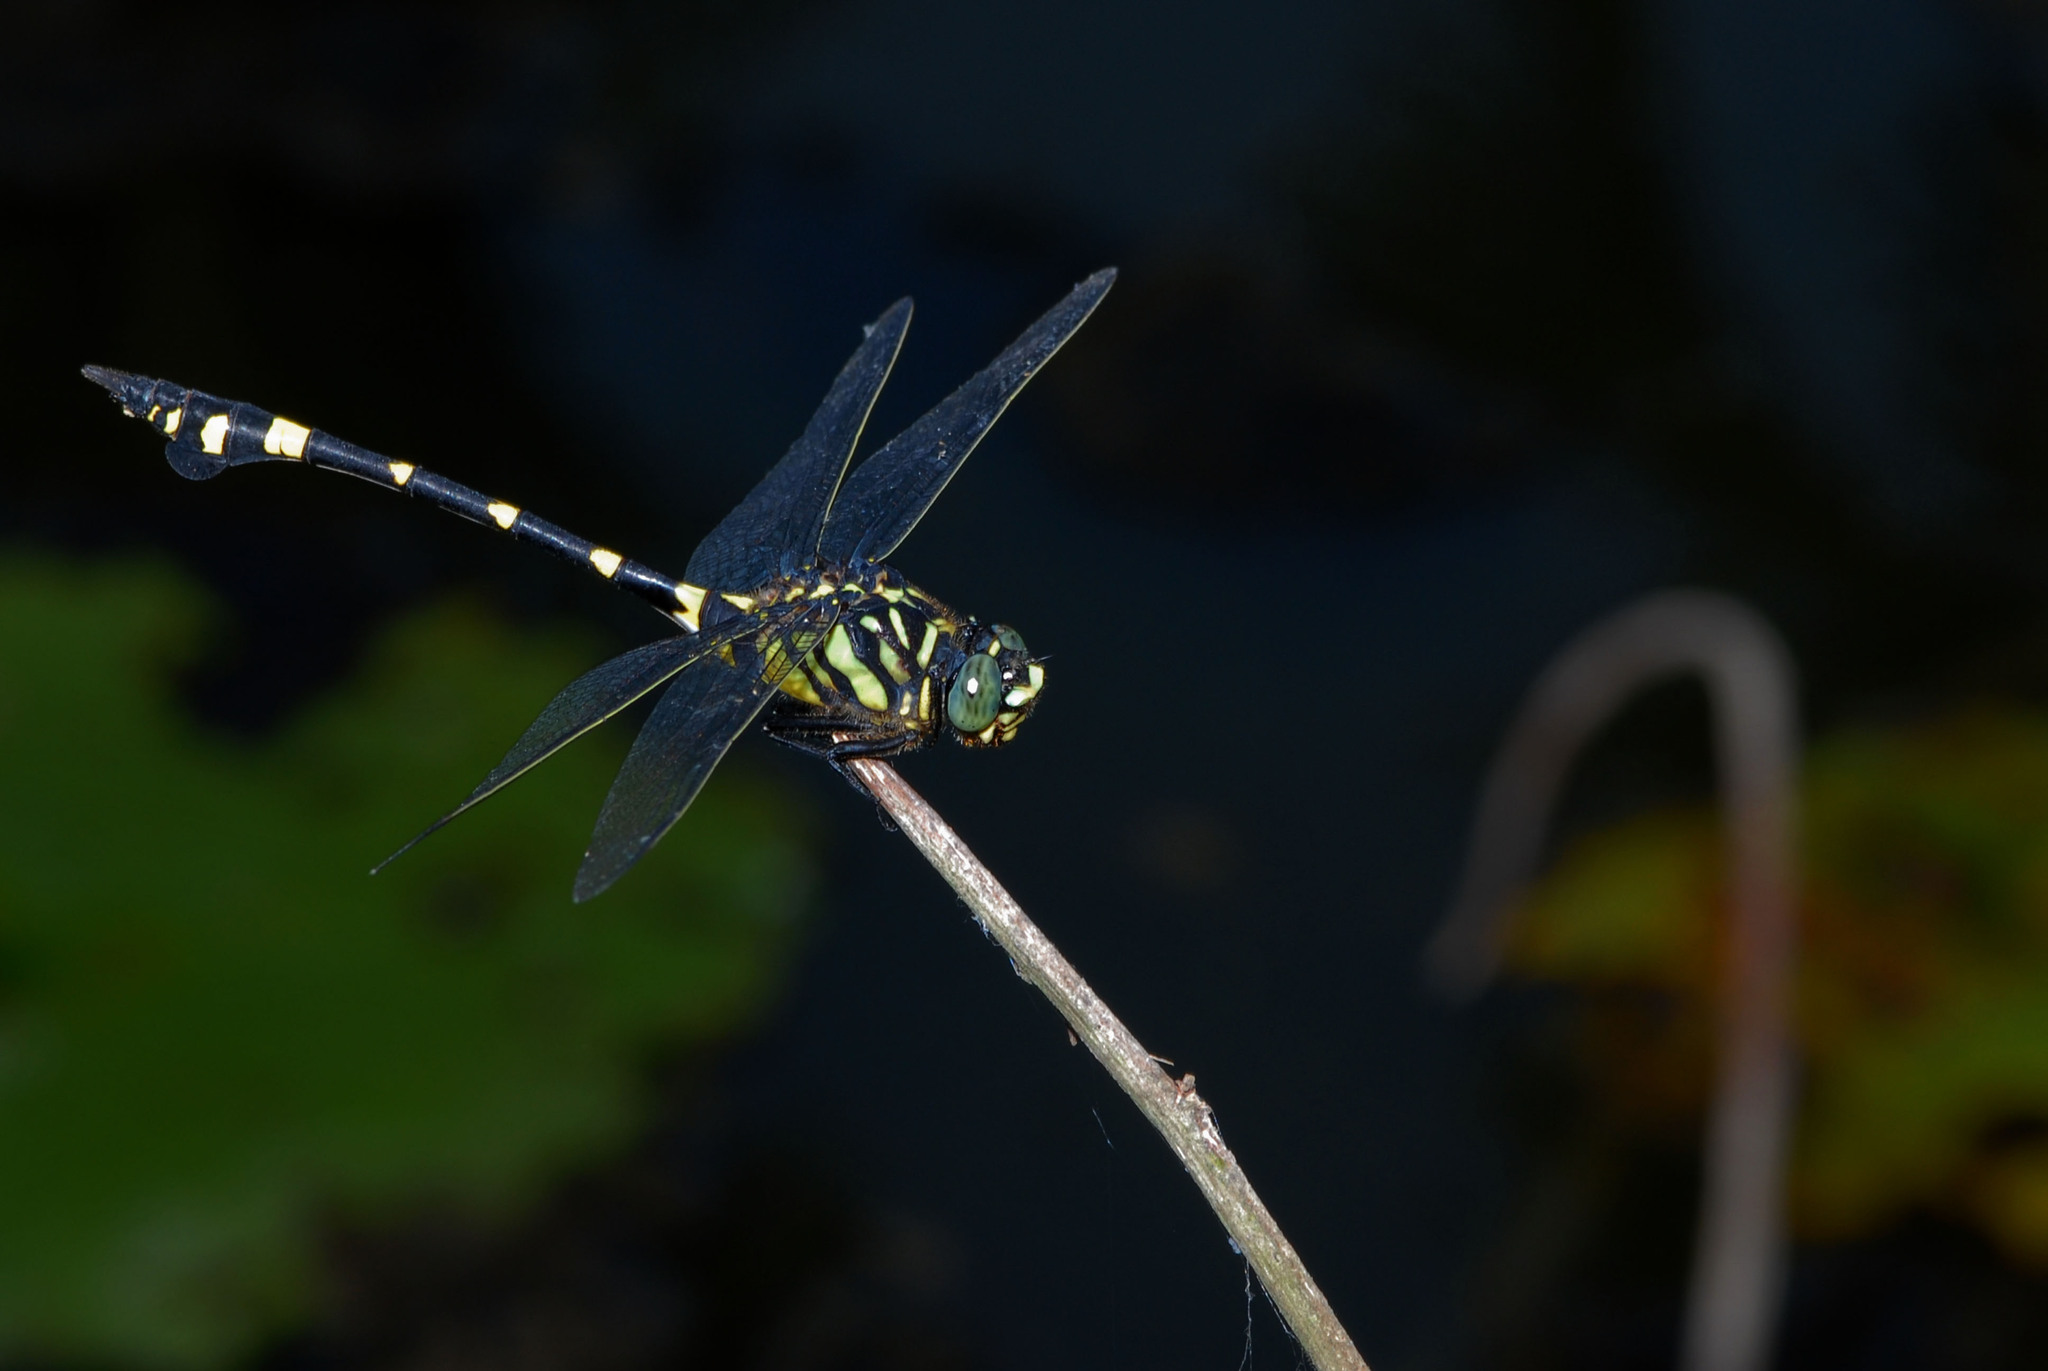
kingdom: Animalia
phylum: Arthropoda
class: Insecta
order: Odonata
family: Gomphidae
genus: Ictinogomphus
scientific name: Ictinogomphus rapax
